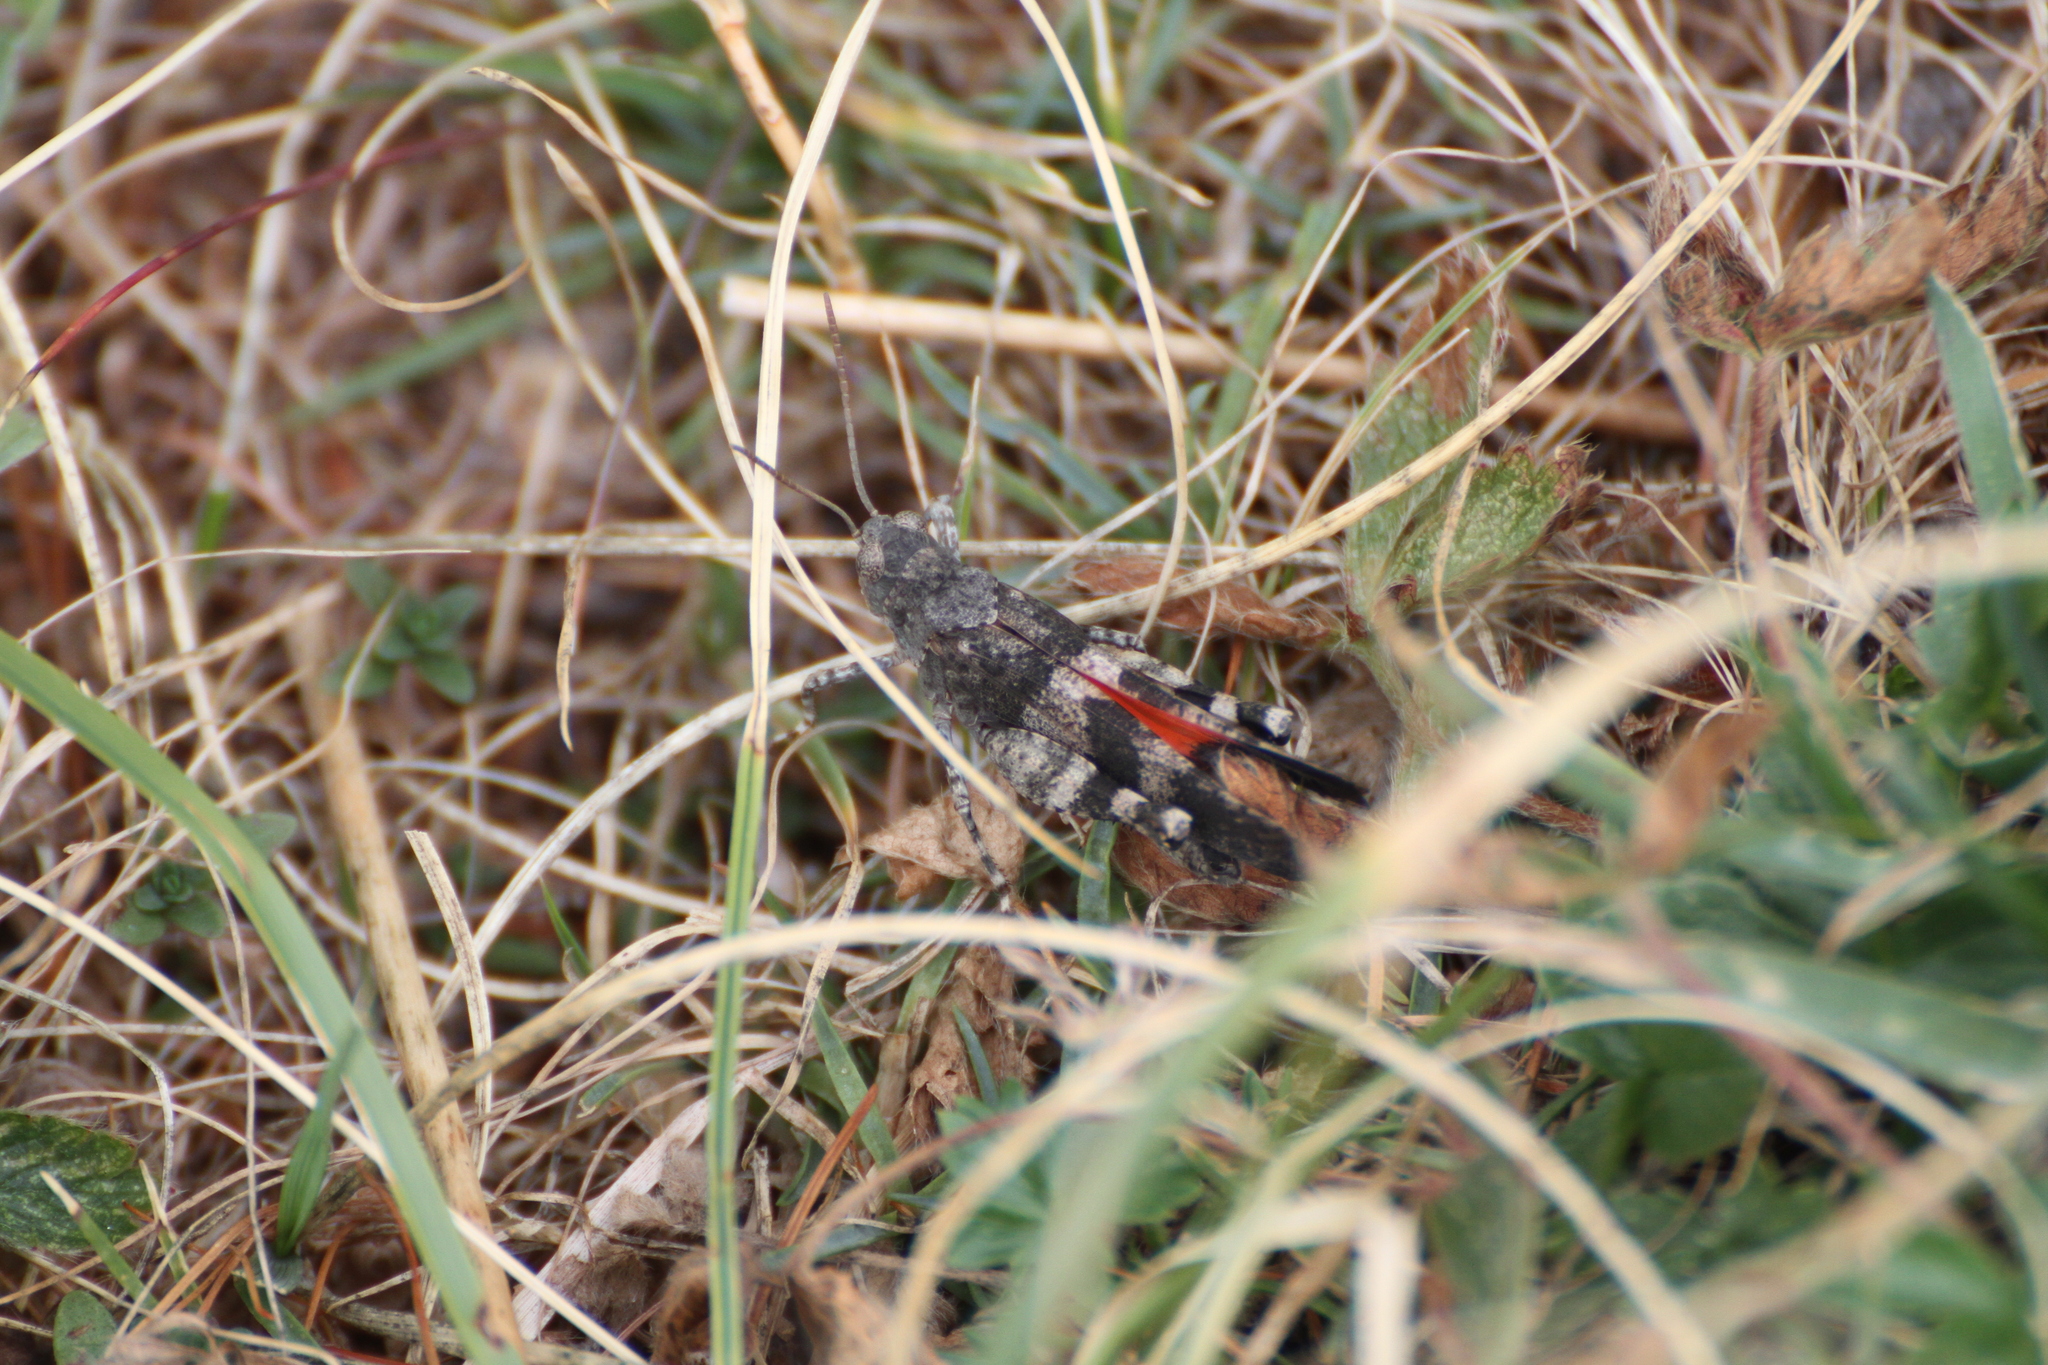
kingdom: Animalia
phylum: Arthropoda
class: Insecta
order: Orthoptera
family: Acrididae
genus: Oedipoda
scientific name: Oedipoda germanica
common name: Red band-winged grasshopper
